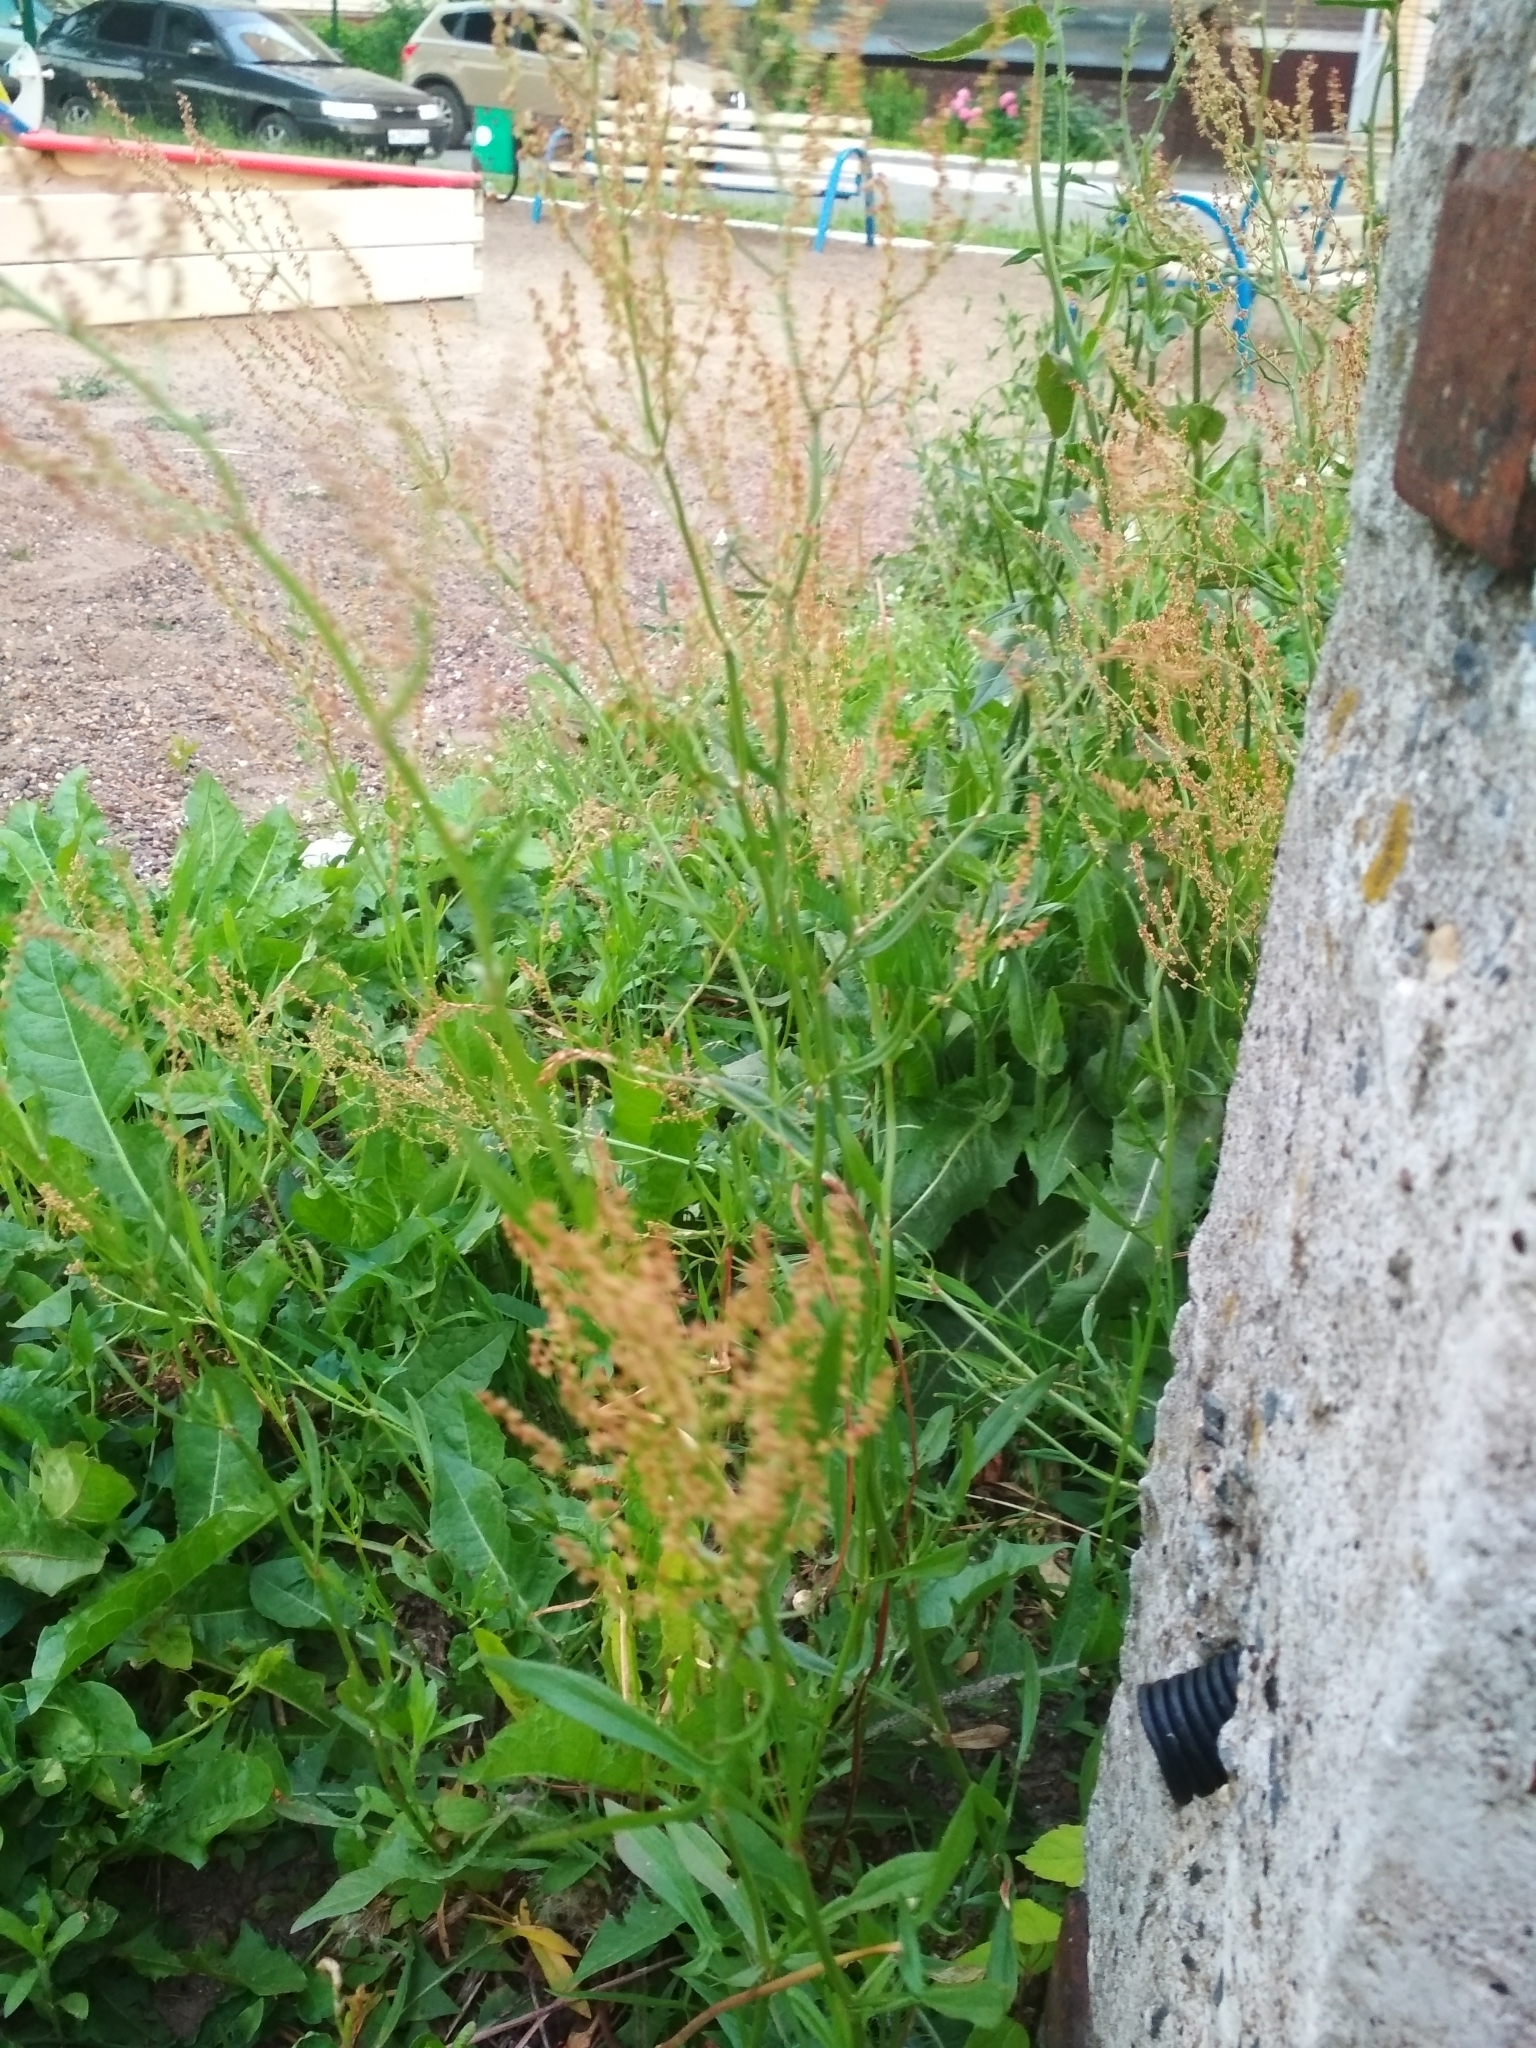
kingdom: Plantae
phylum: Tracheophyta
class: Magnoliopsida
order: Caryophyllales
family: Polygonaceae
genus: Rumex
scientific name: Rumex thyrsiflorus
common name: Garden sorrel
